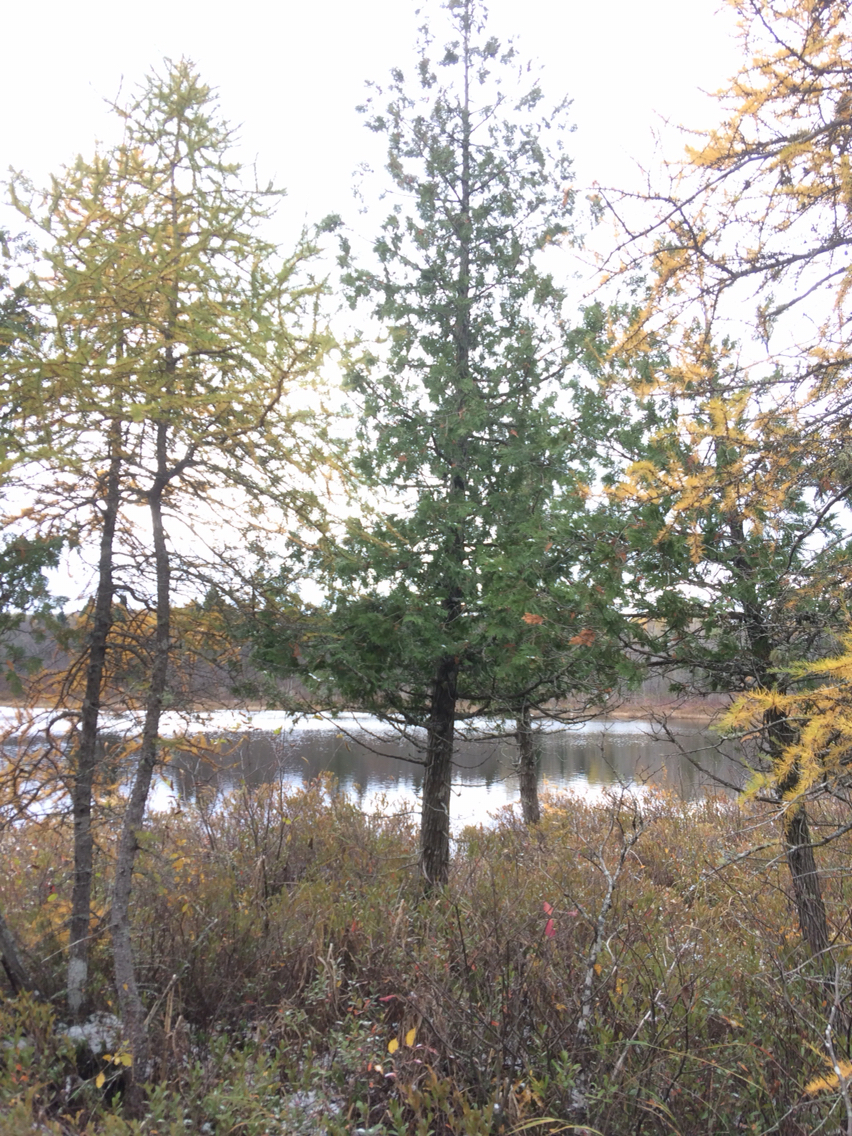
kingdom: Plantae
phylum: Tracheophyta
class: Pinopsida
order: Pinales
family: Cupressaceae
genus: Thuja
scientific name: Thuja occidentalis
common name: Northern white-cedar
